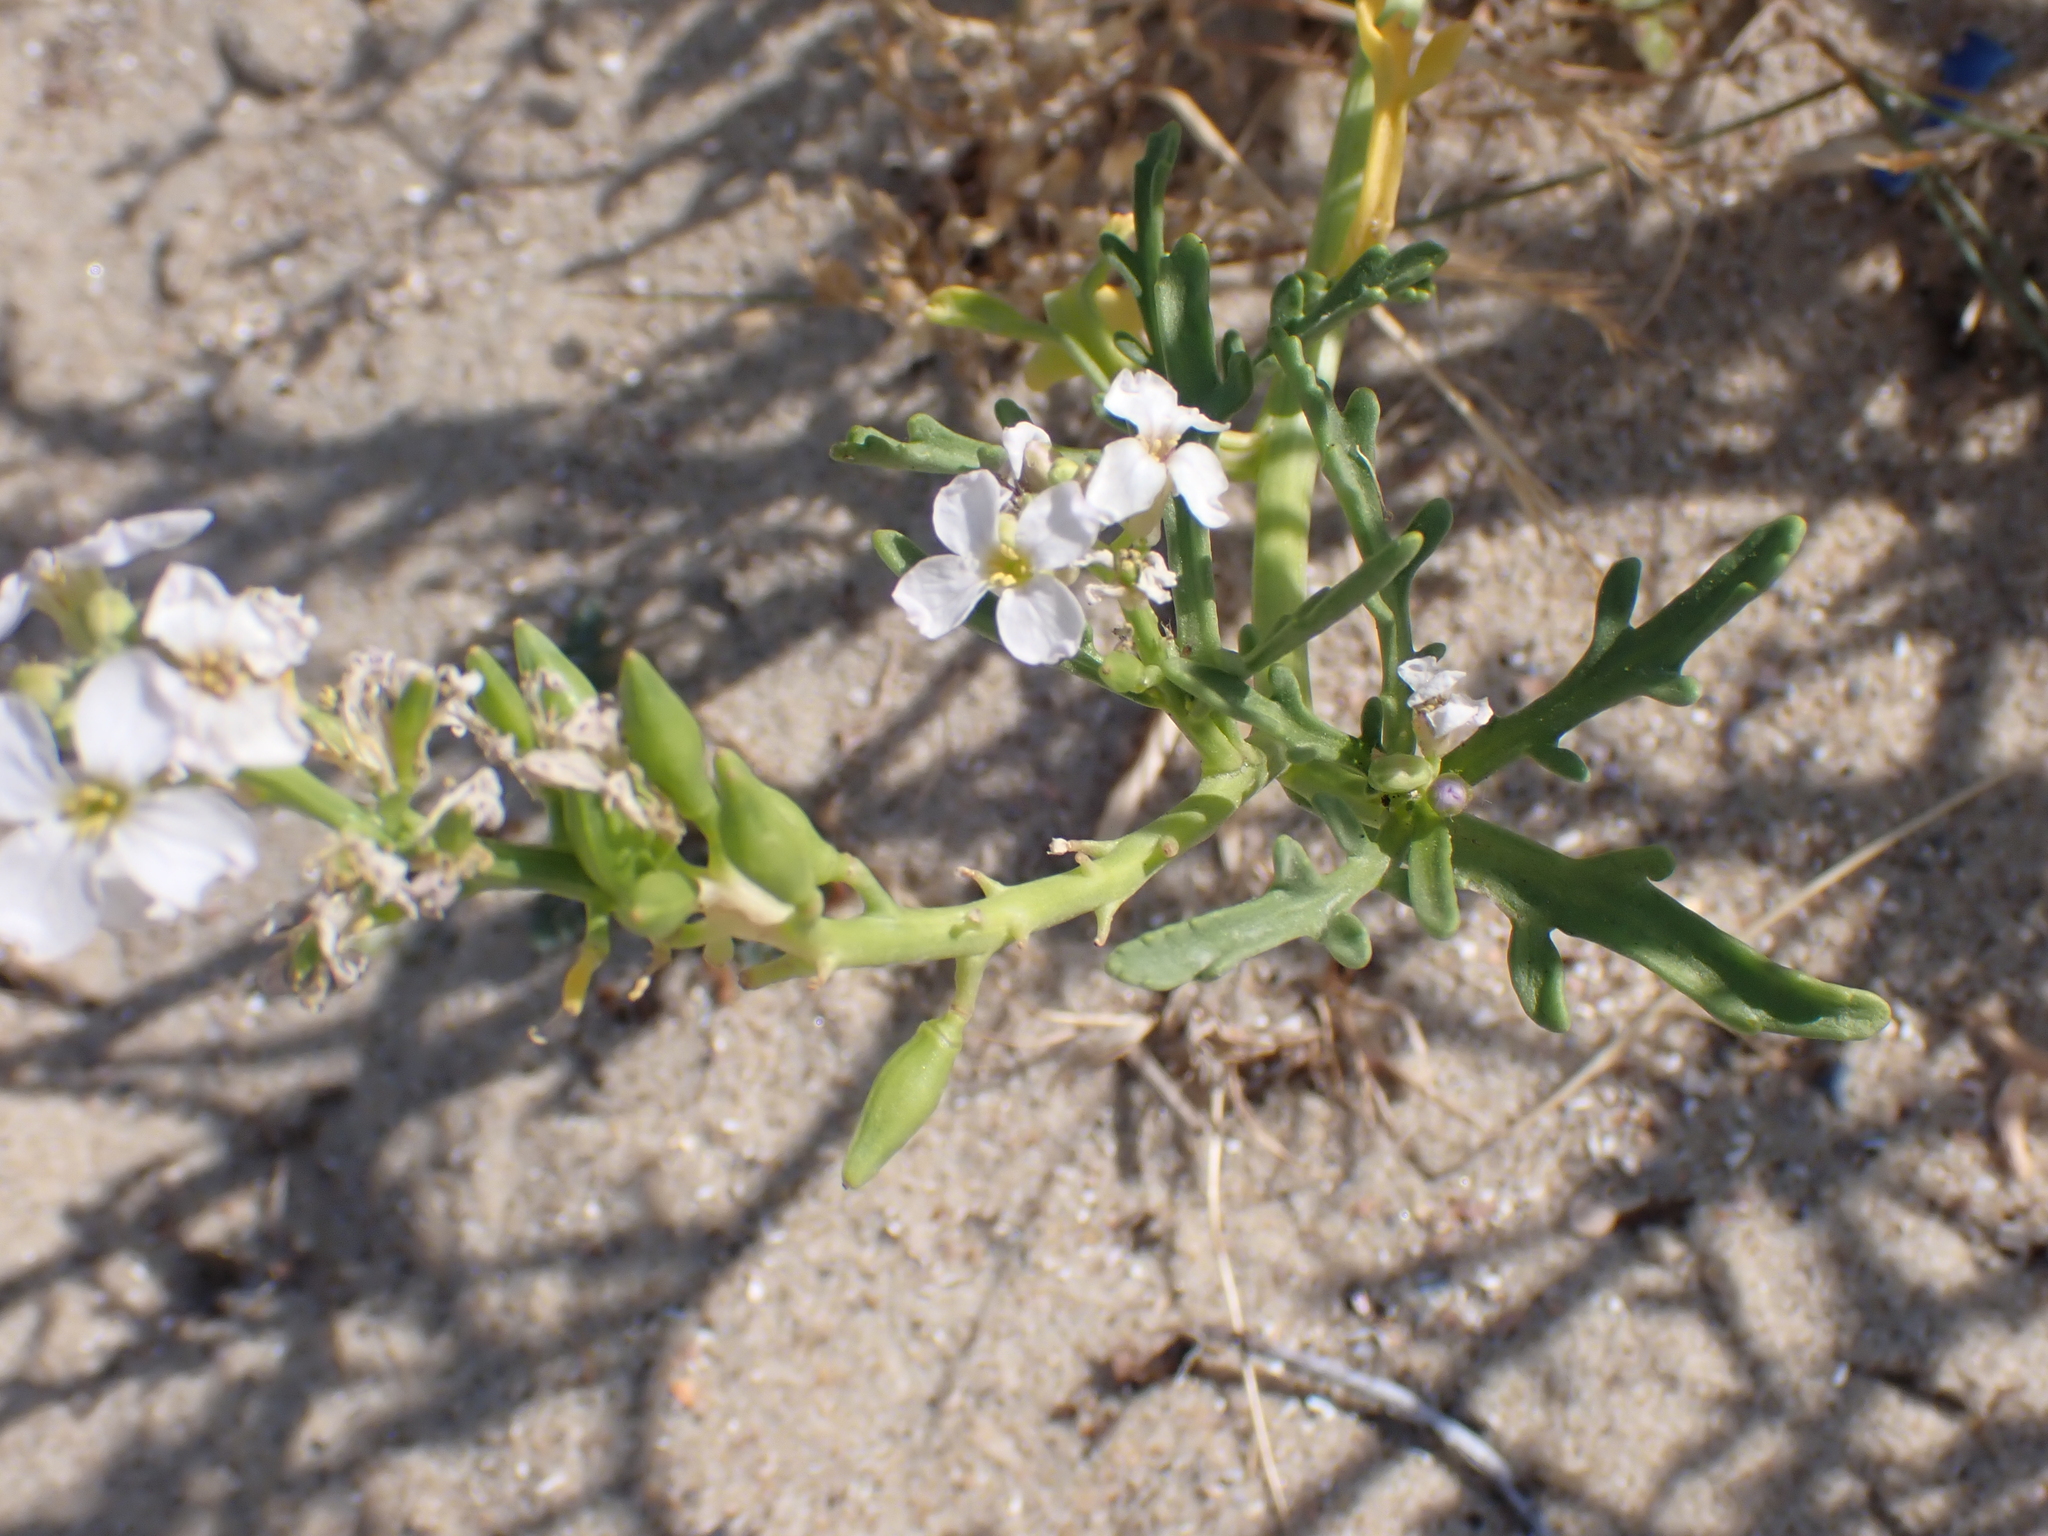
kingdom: Plantae
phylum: Tracheophyta
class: Magnoliopsida
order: Brassicales
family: Brassicaceae
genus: Cakile
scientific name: Cakile maritima
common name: Sea rocket
